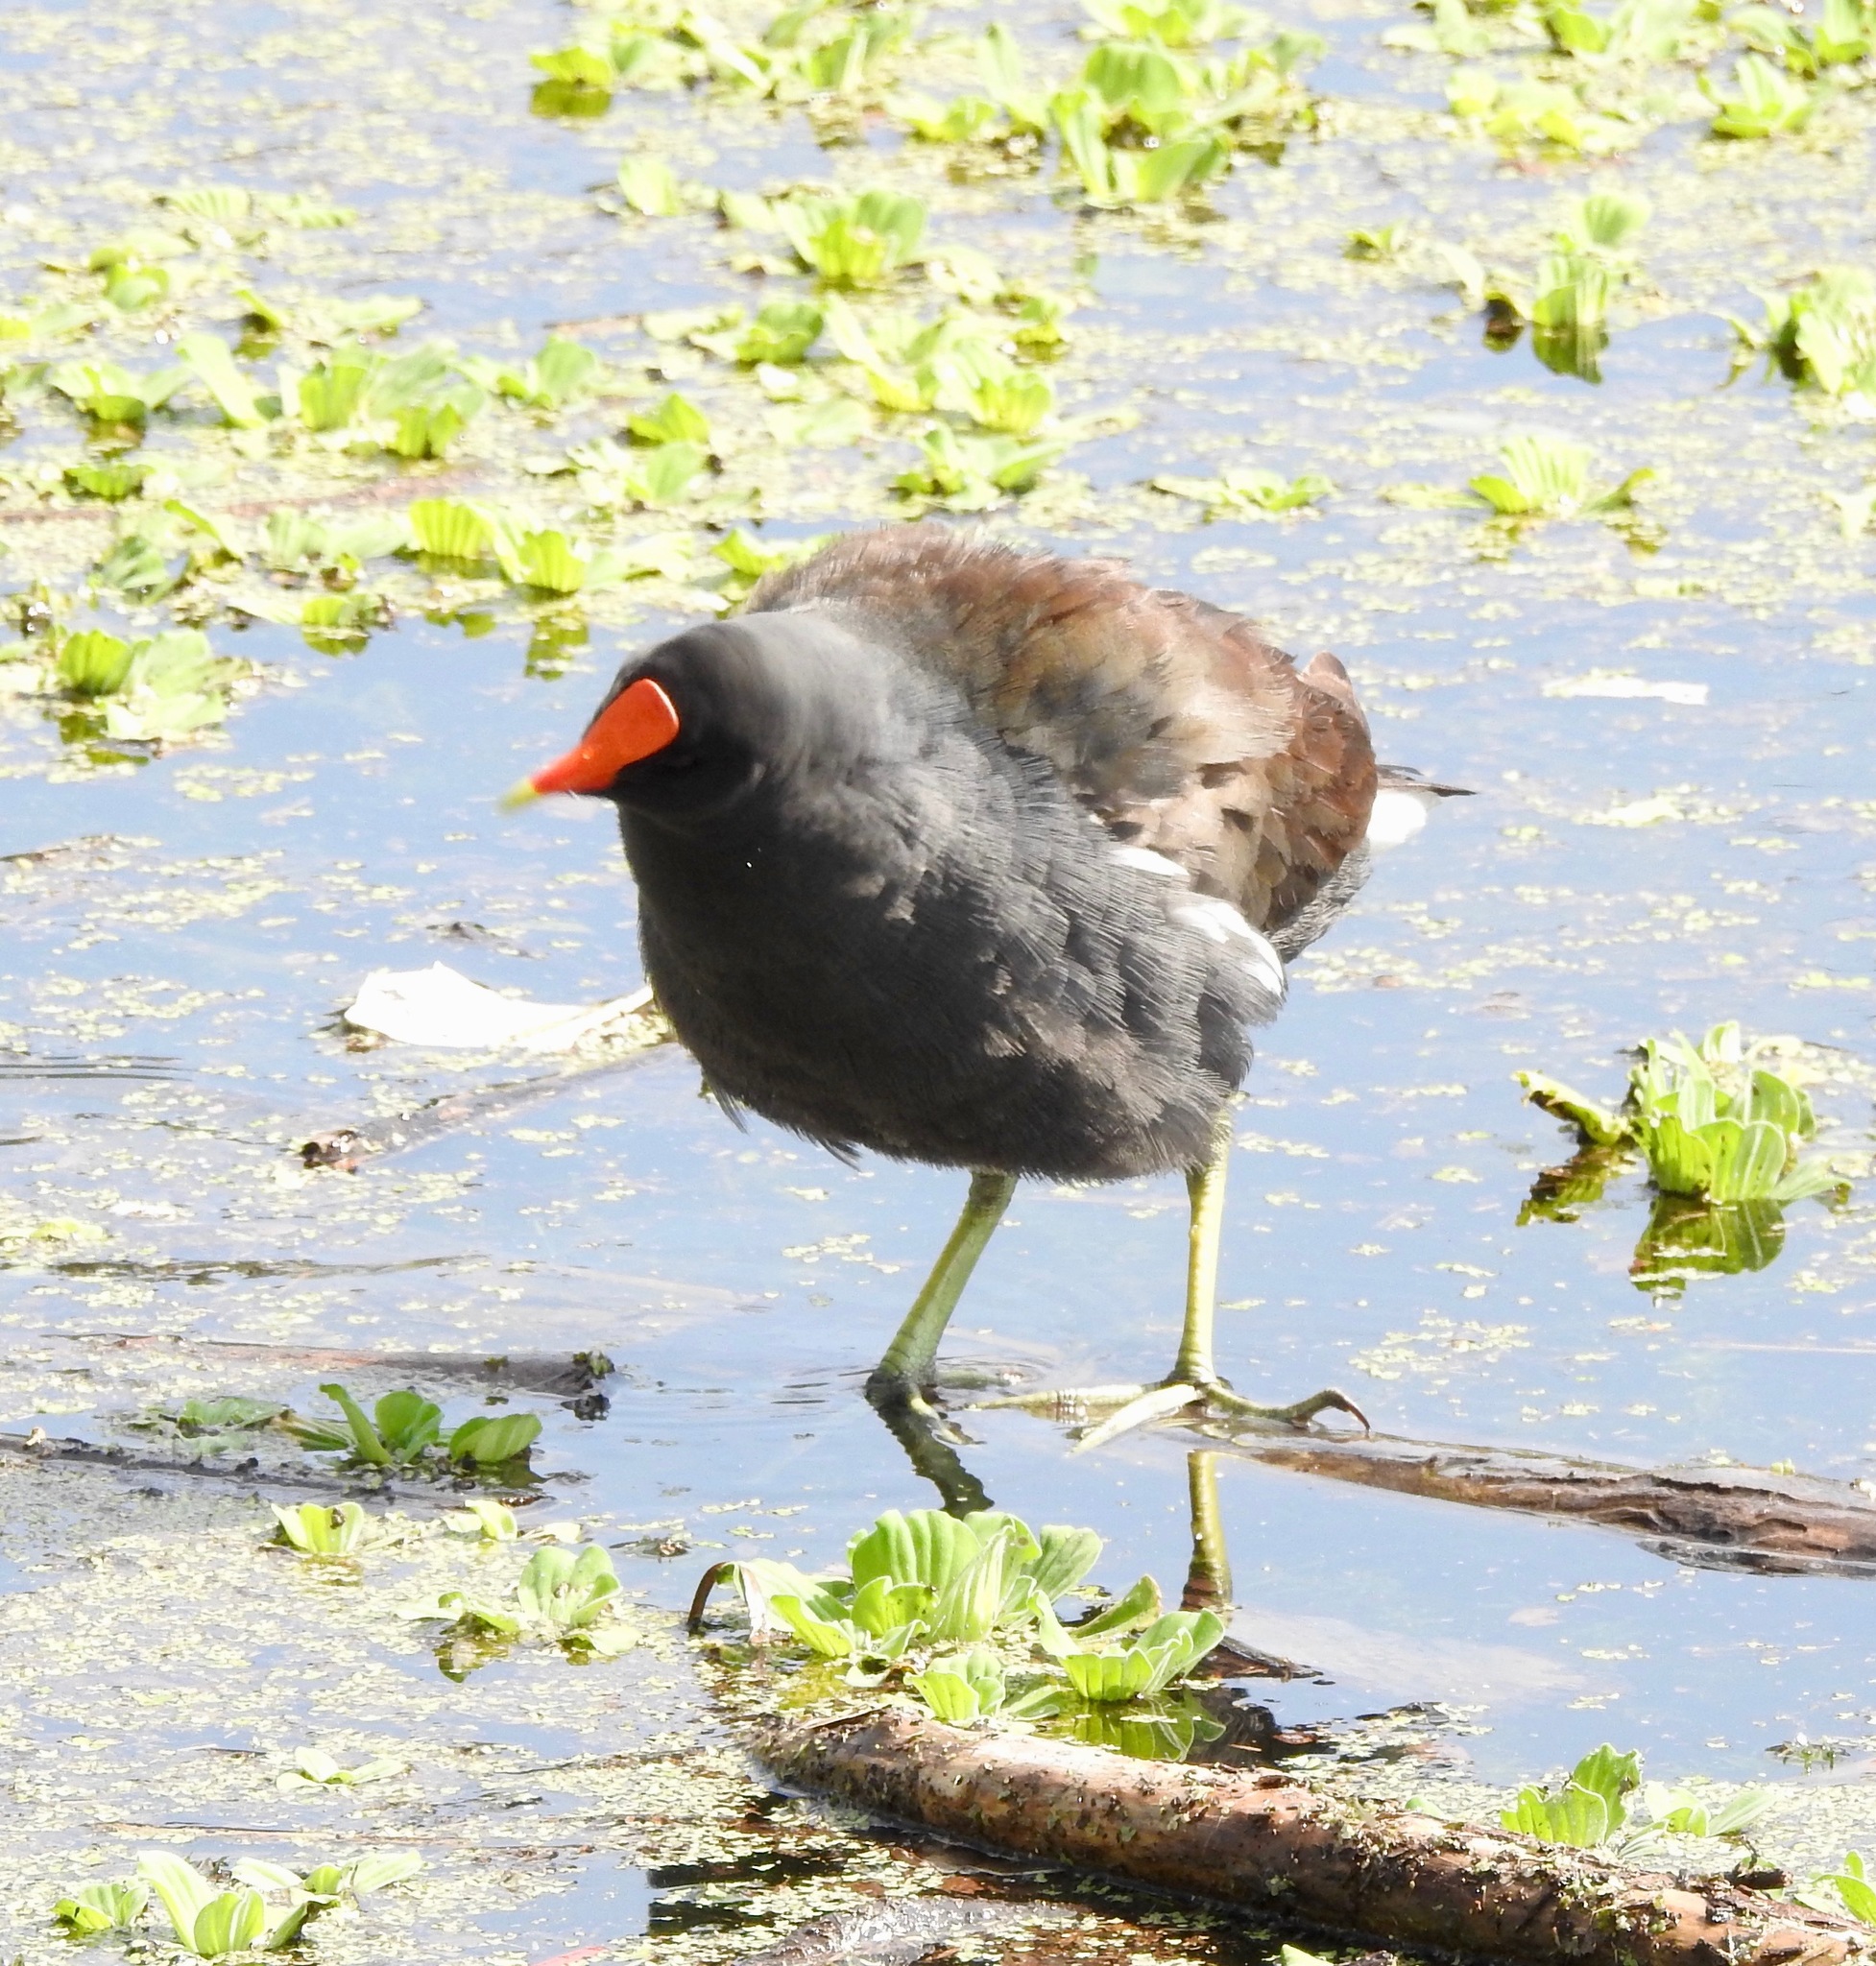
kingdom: Animalia
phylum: Chordata
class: Aves
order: Gruiformes
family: Rallidae
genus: Gallinula
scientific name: Gallinula chloropus
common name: Common moorhen
